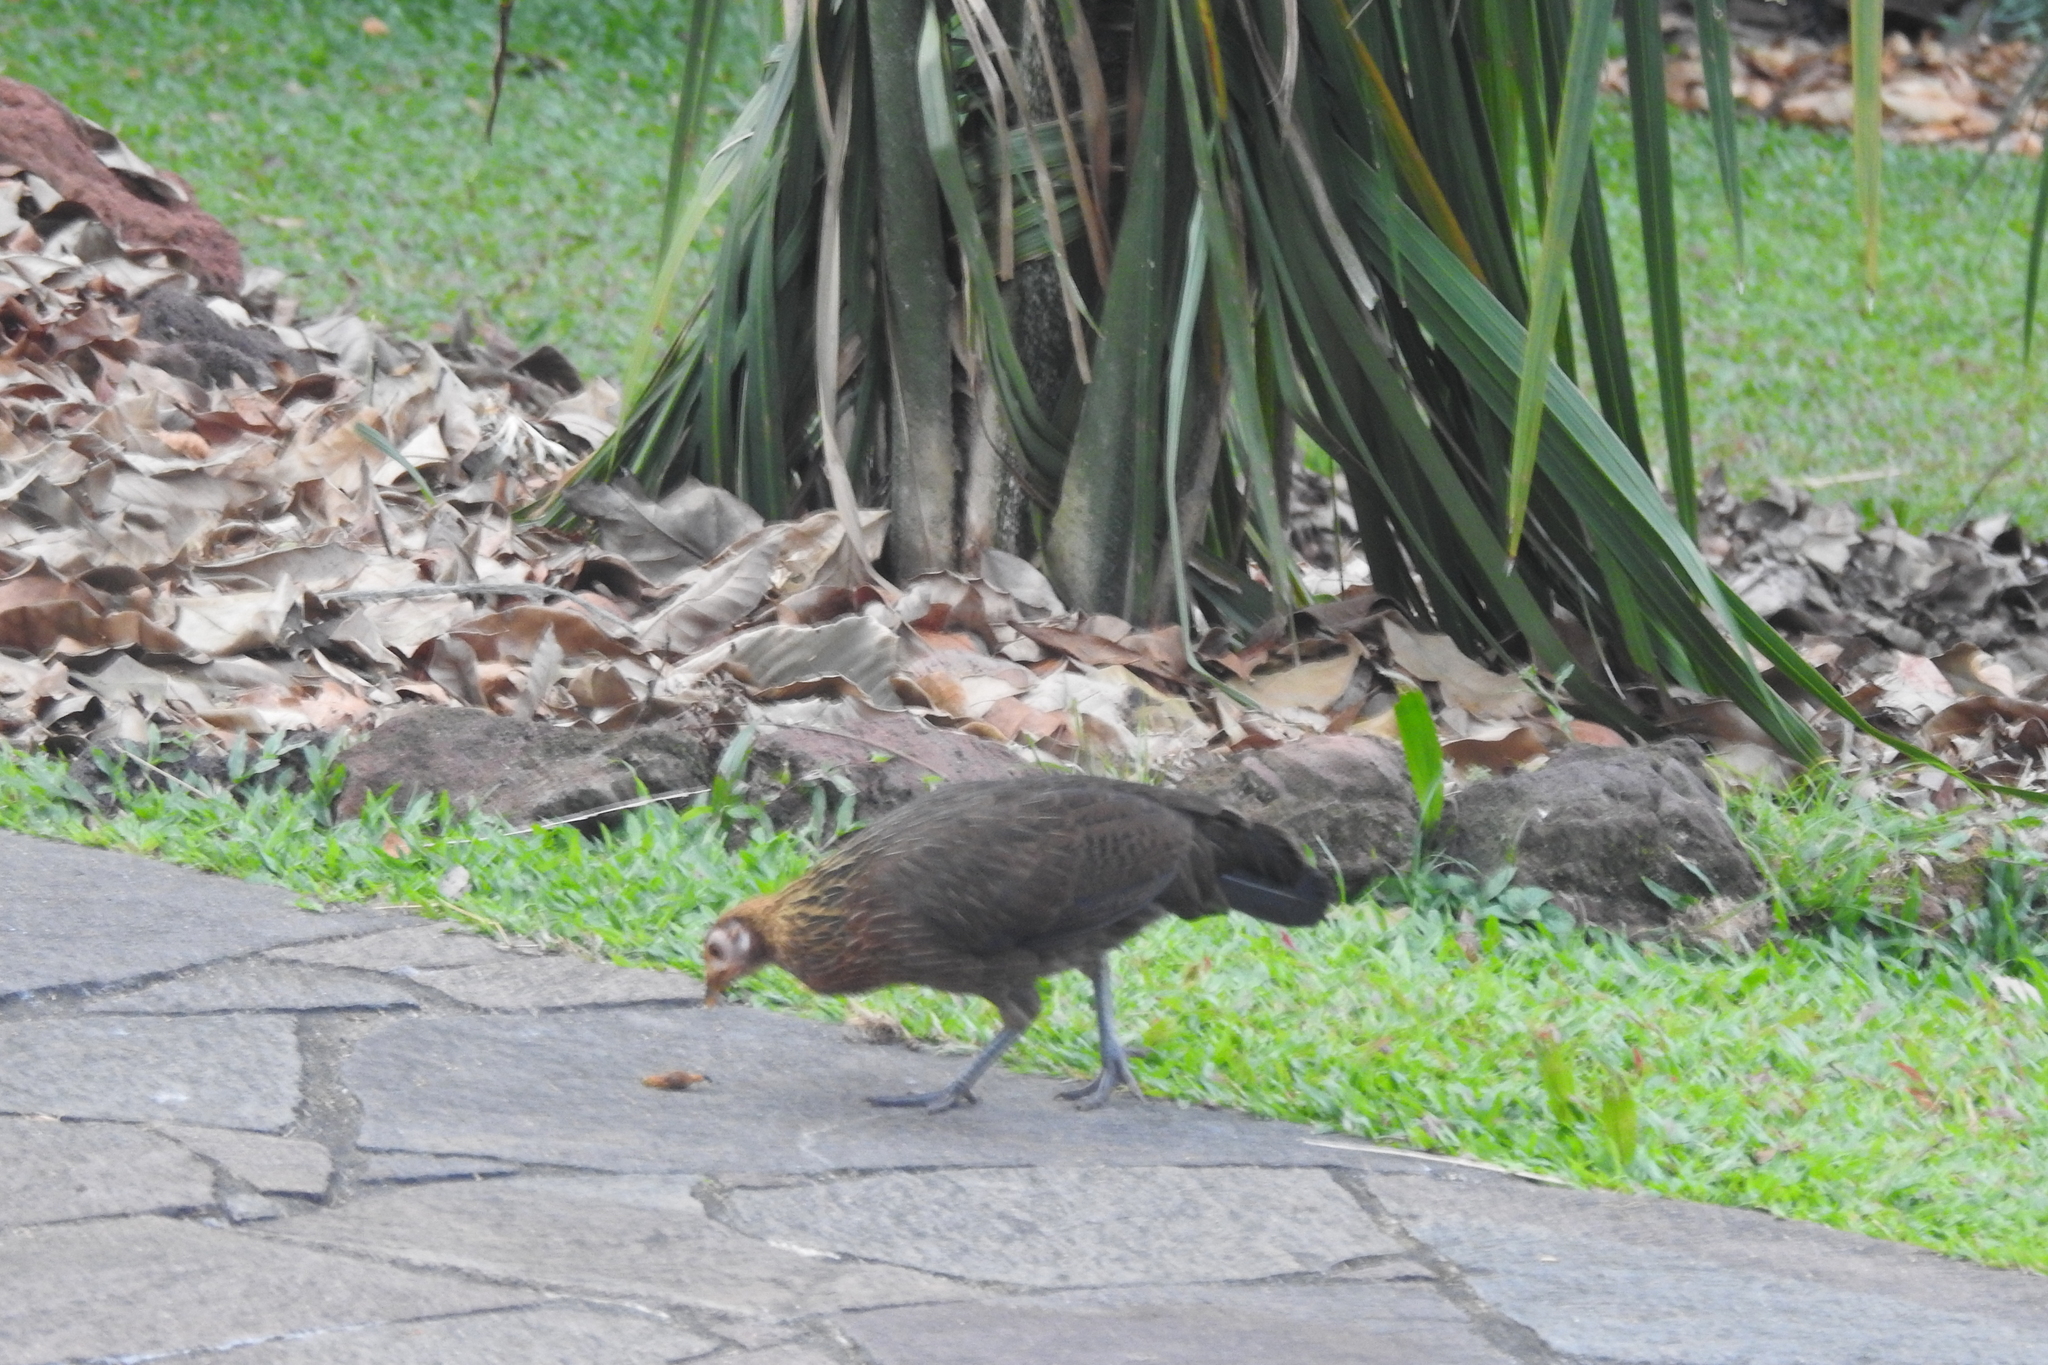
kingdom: Animalia
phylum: Chordata
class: Aves
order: Galliformes
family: Phasianidae
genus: Gallus
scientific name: Gallus gallus
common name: Red junglefowl
